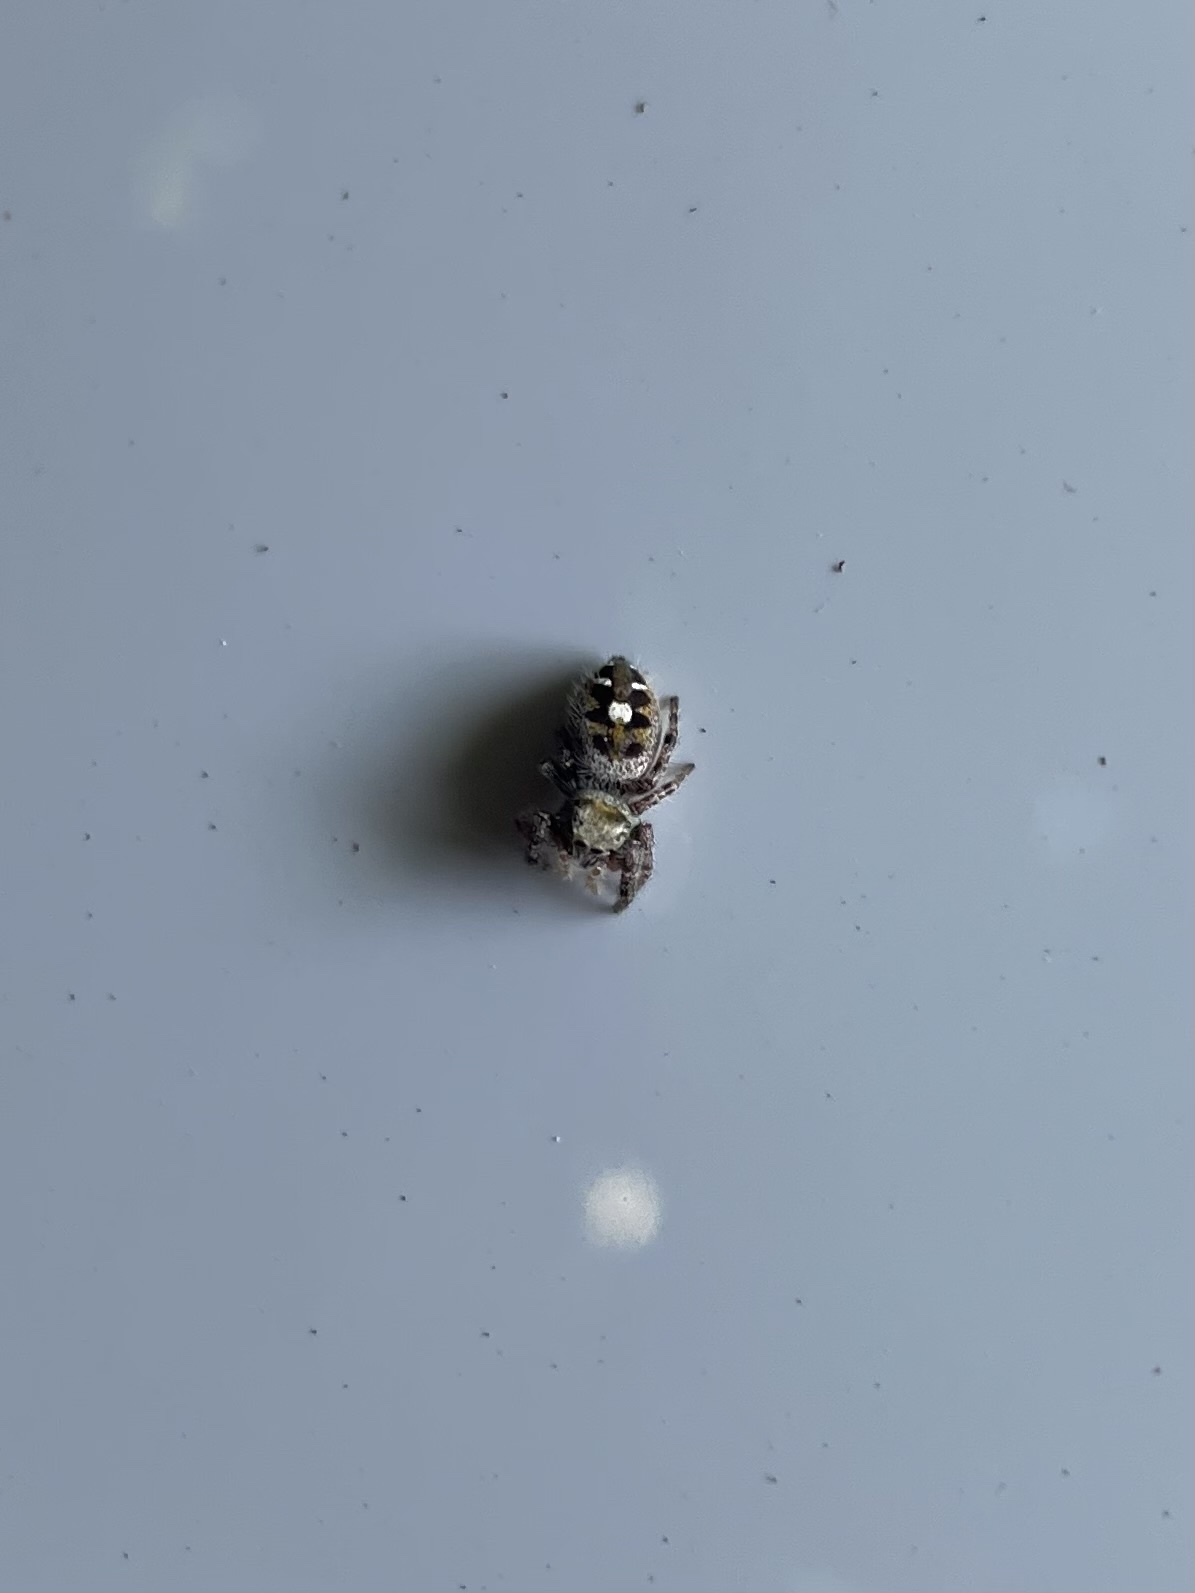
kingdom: Animalia
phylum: Arthropoda
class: Arachnida
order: Araneae
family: Salticidae
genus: Phidippus
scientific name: Phidippus audax
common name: Bold jumper
